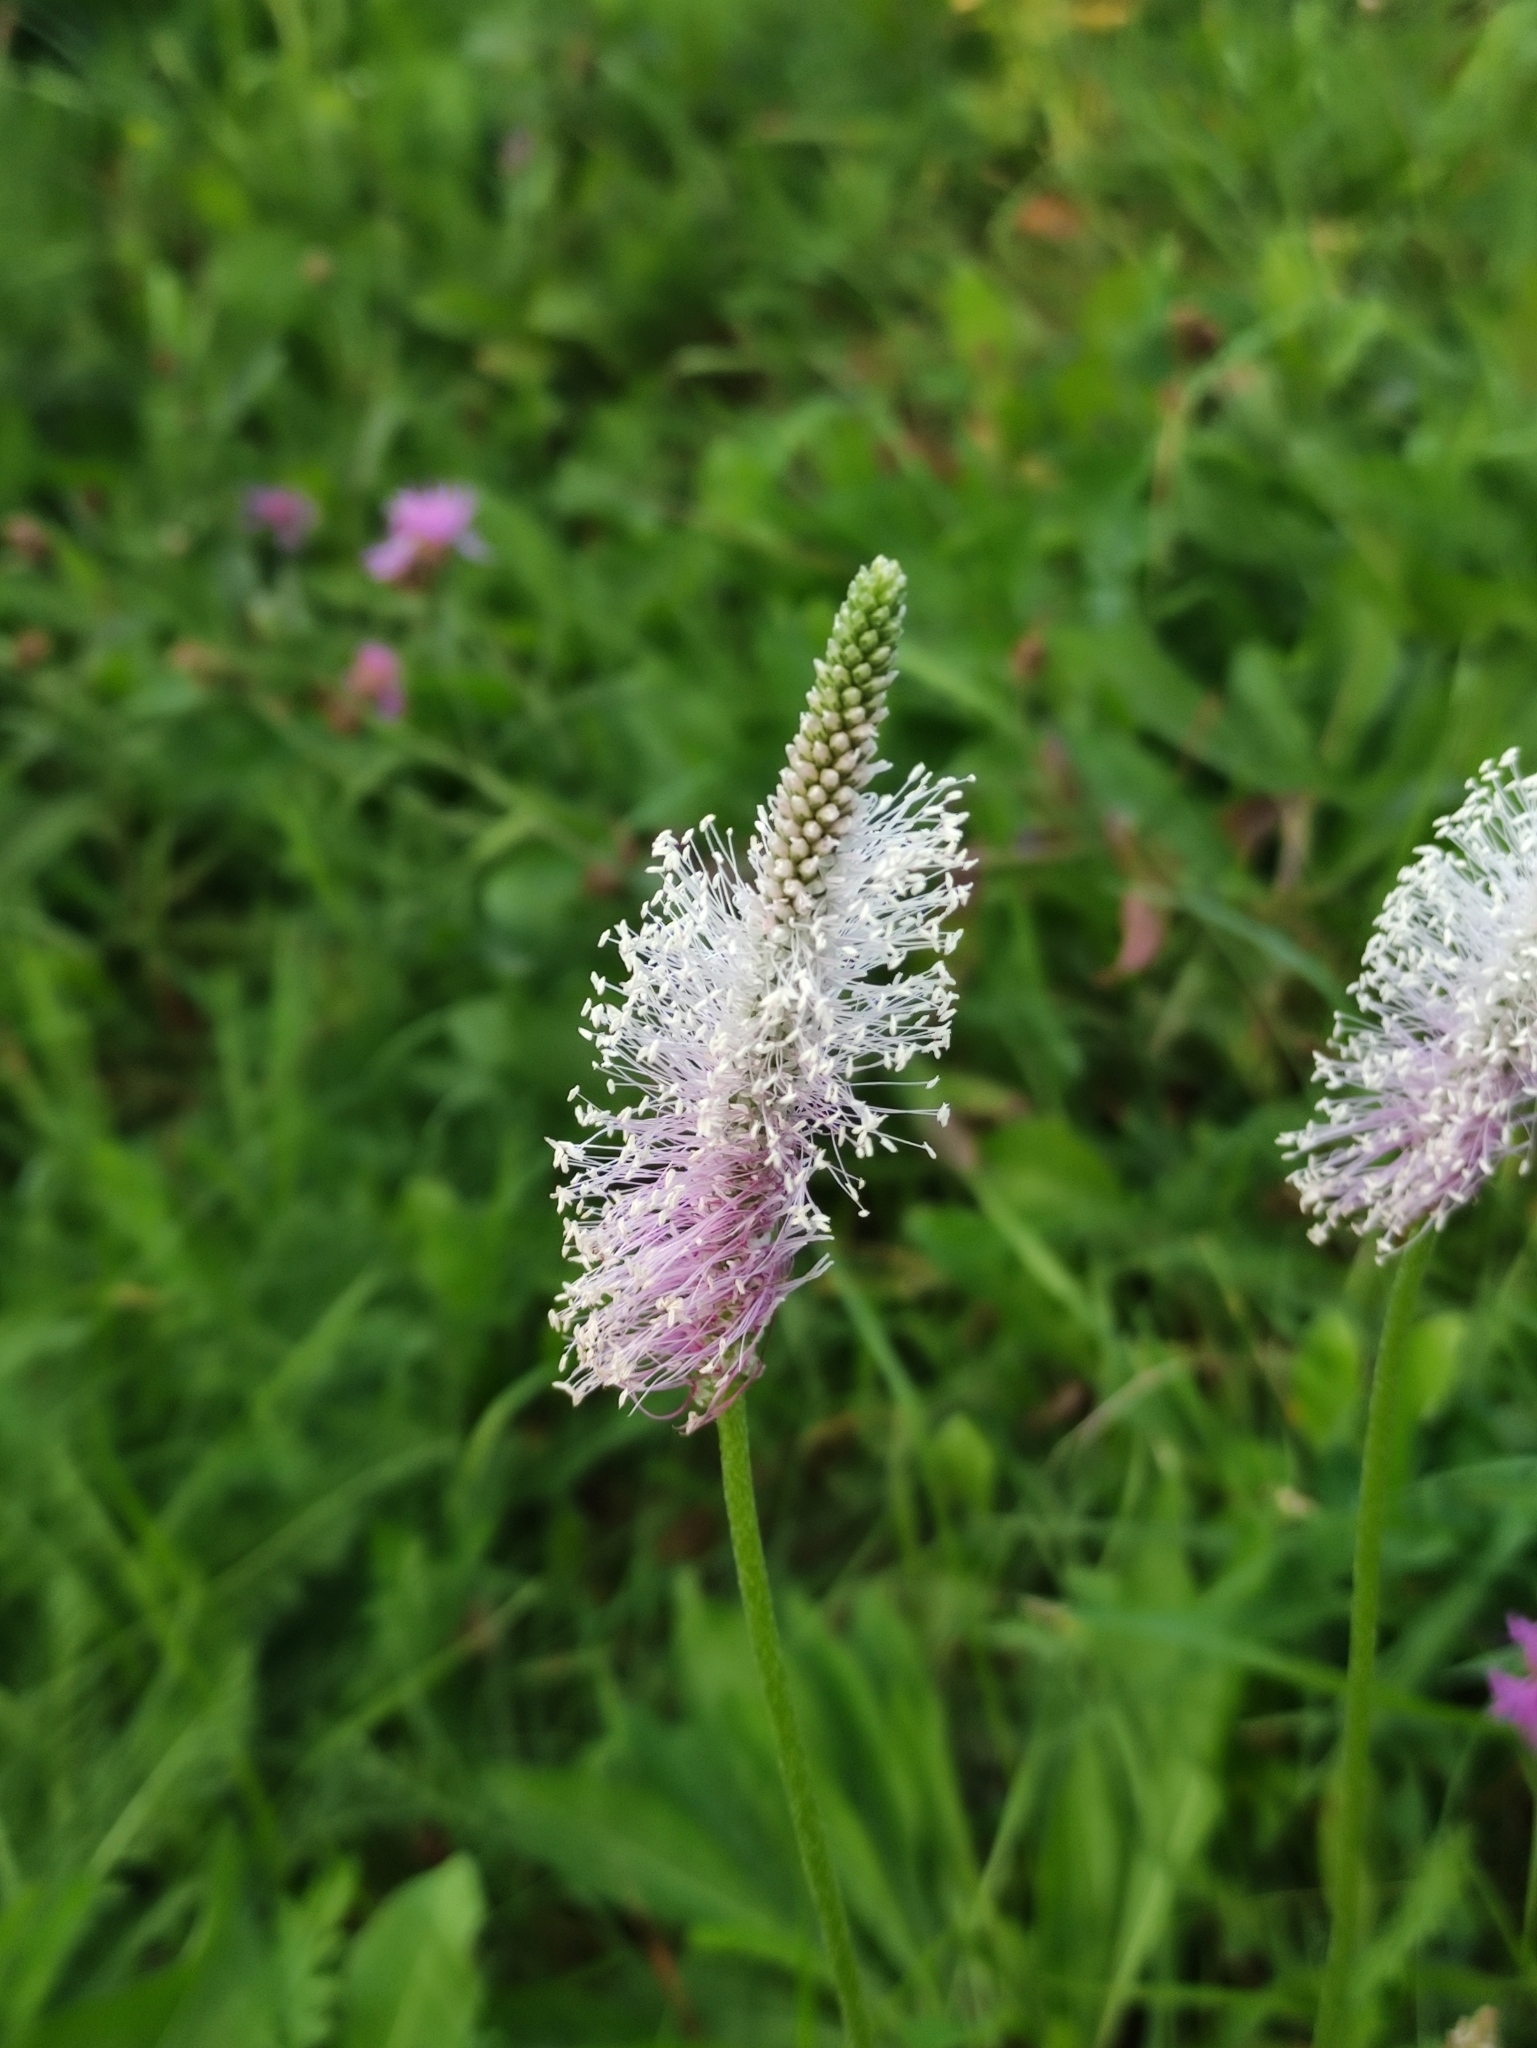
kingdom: Plantae
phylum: Tracheophyta
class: Magnoliopsida
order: Lamiales
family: Plantaginaceae
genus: Plantago
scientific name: Plantago media
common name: Hoary plantain
